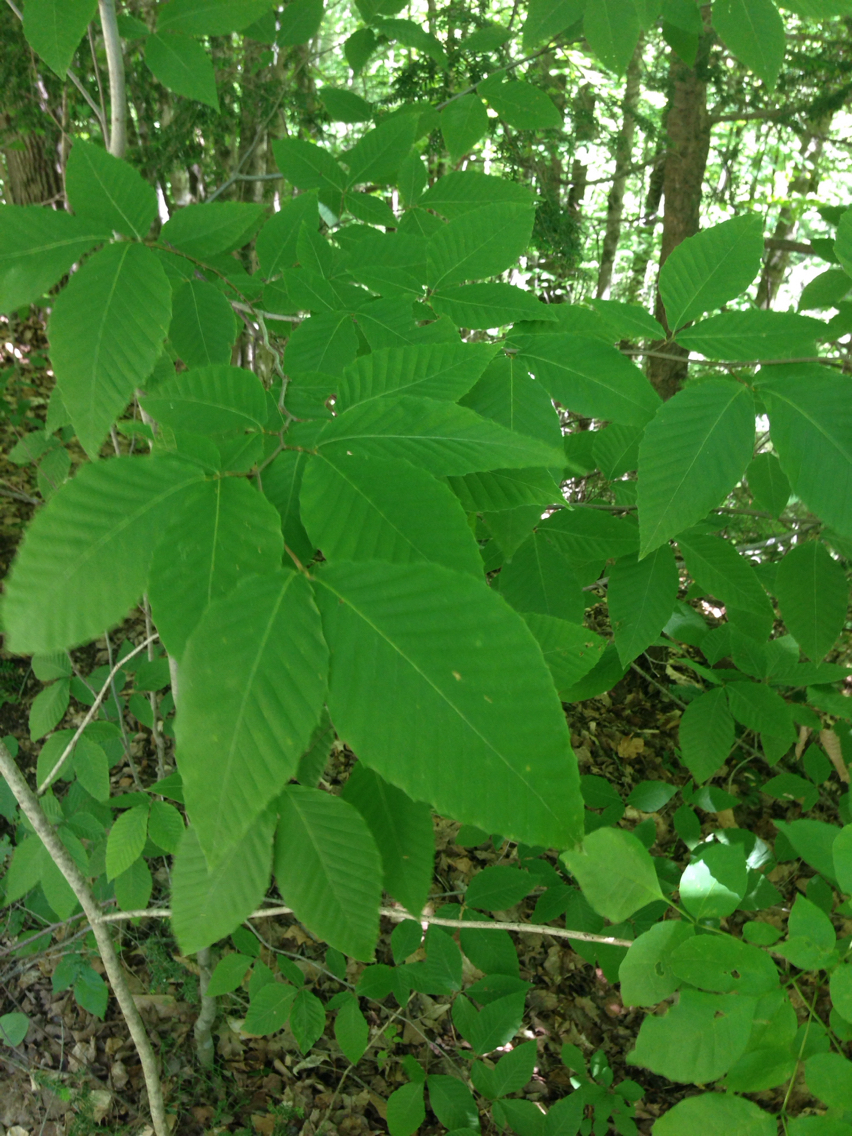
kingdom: Plantae
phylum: Tracheophyta
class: Magnoliopsida
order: Fagales
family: Fagaceae
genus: Fagus
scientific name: Fagus grandifolia
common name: American beech
